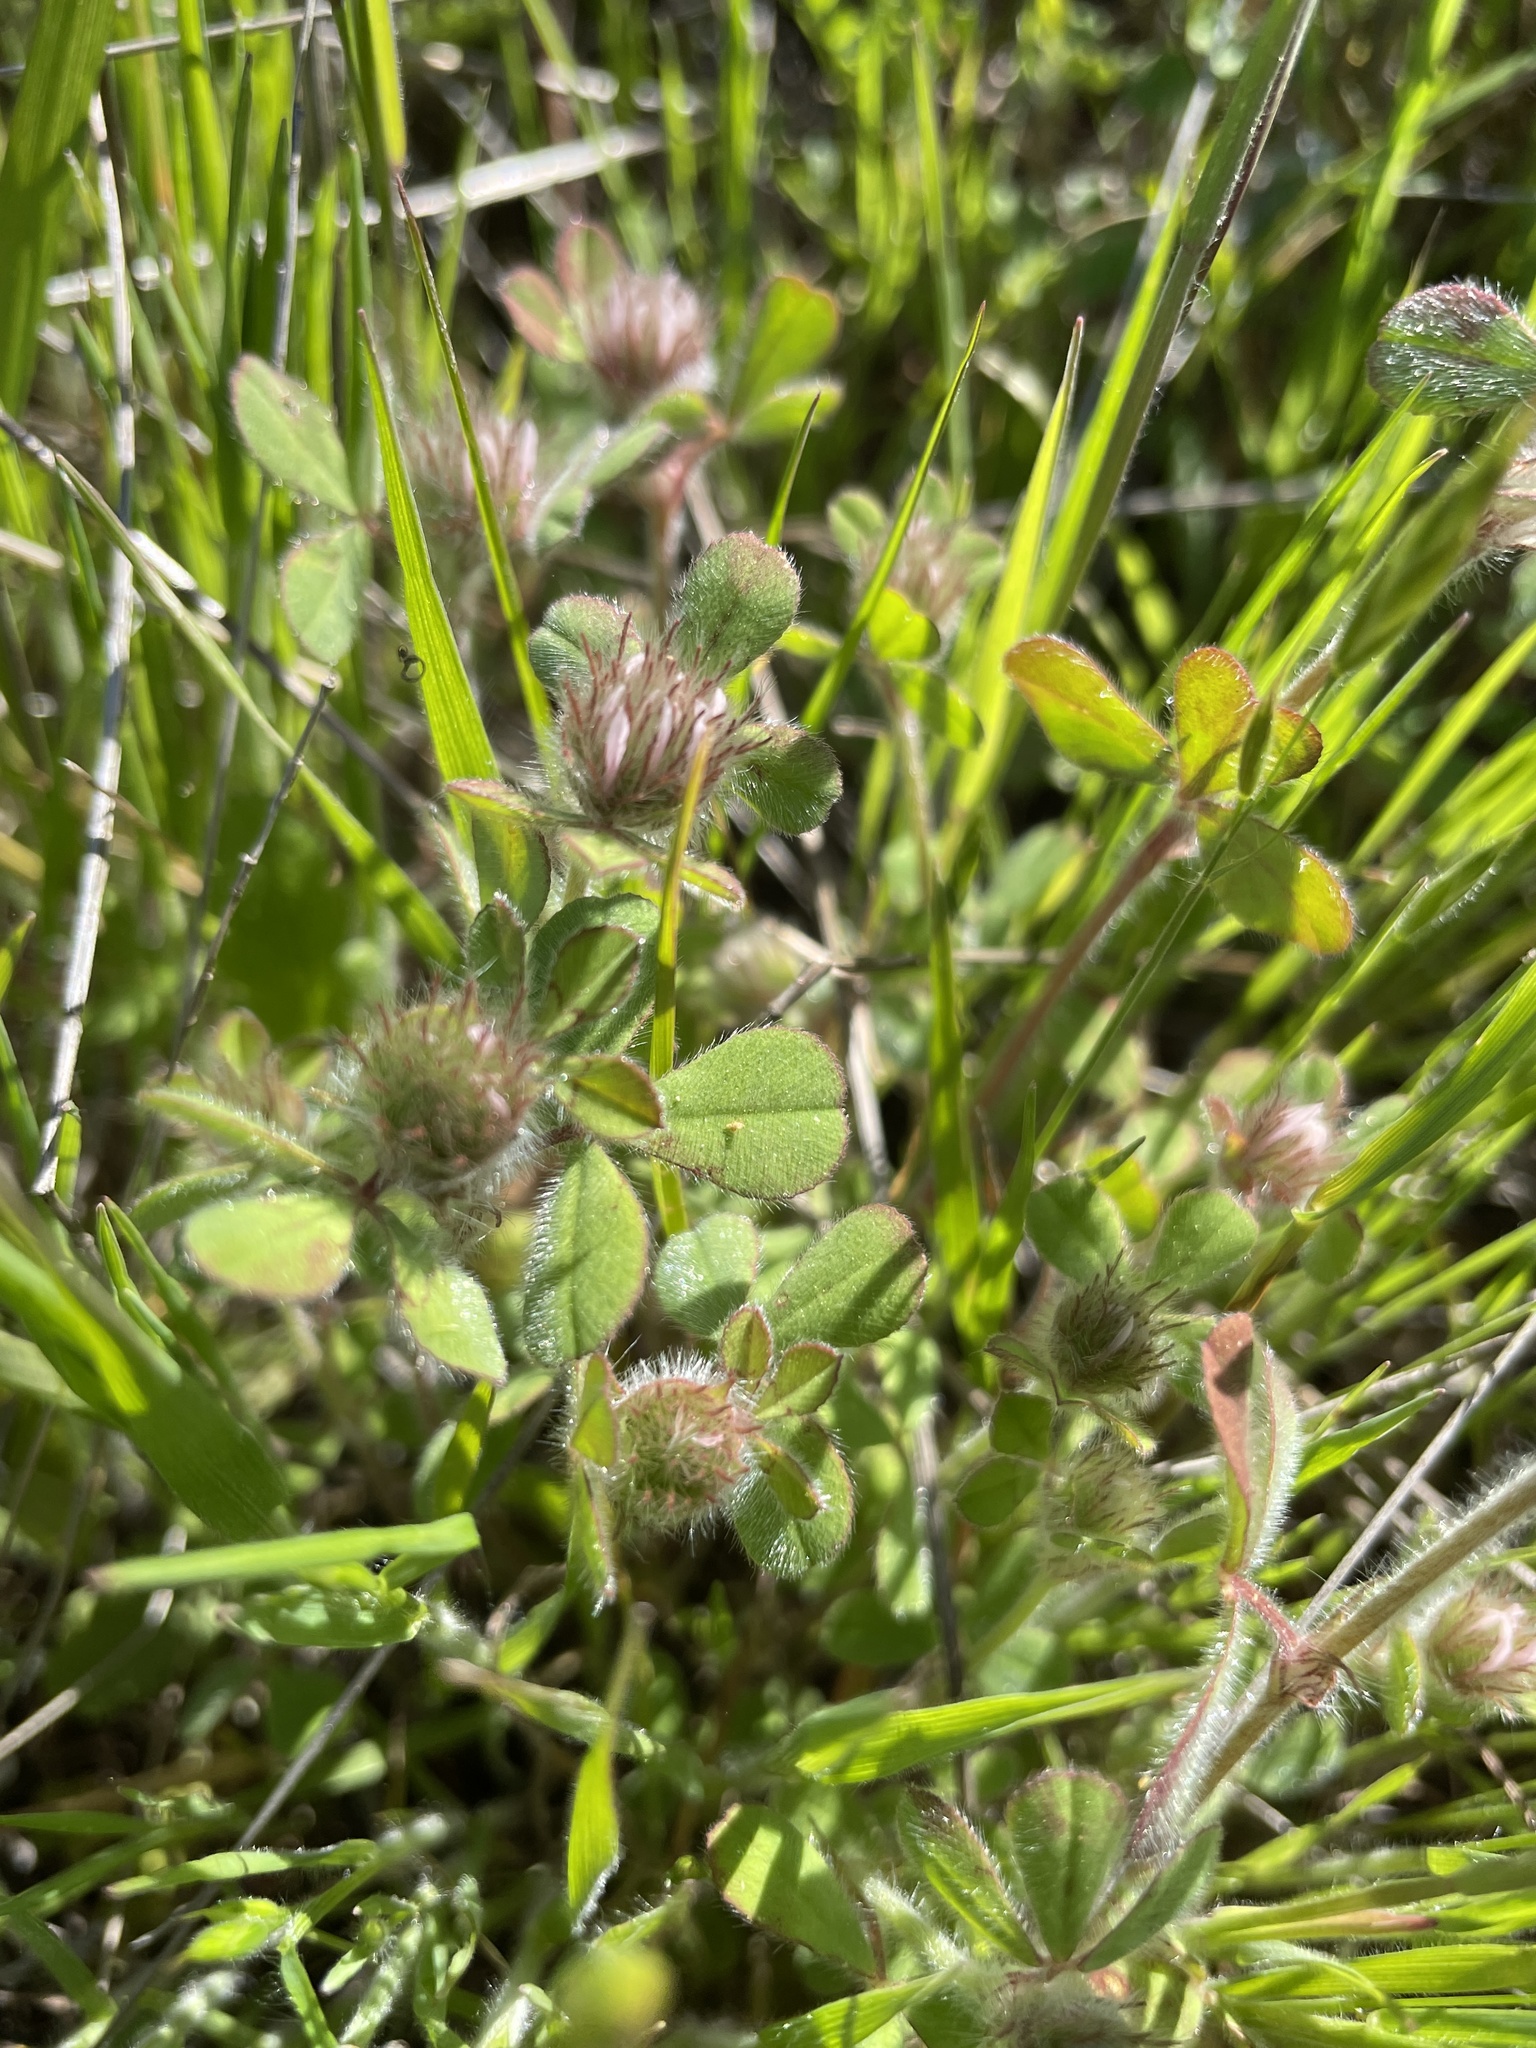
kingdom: Plantae
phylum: Tracheophyta
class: Magnoliopsida
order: Fabales
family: Fabaceae
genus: Trifolium
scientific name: Trifolium hirtum
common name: Rose clover
